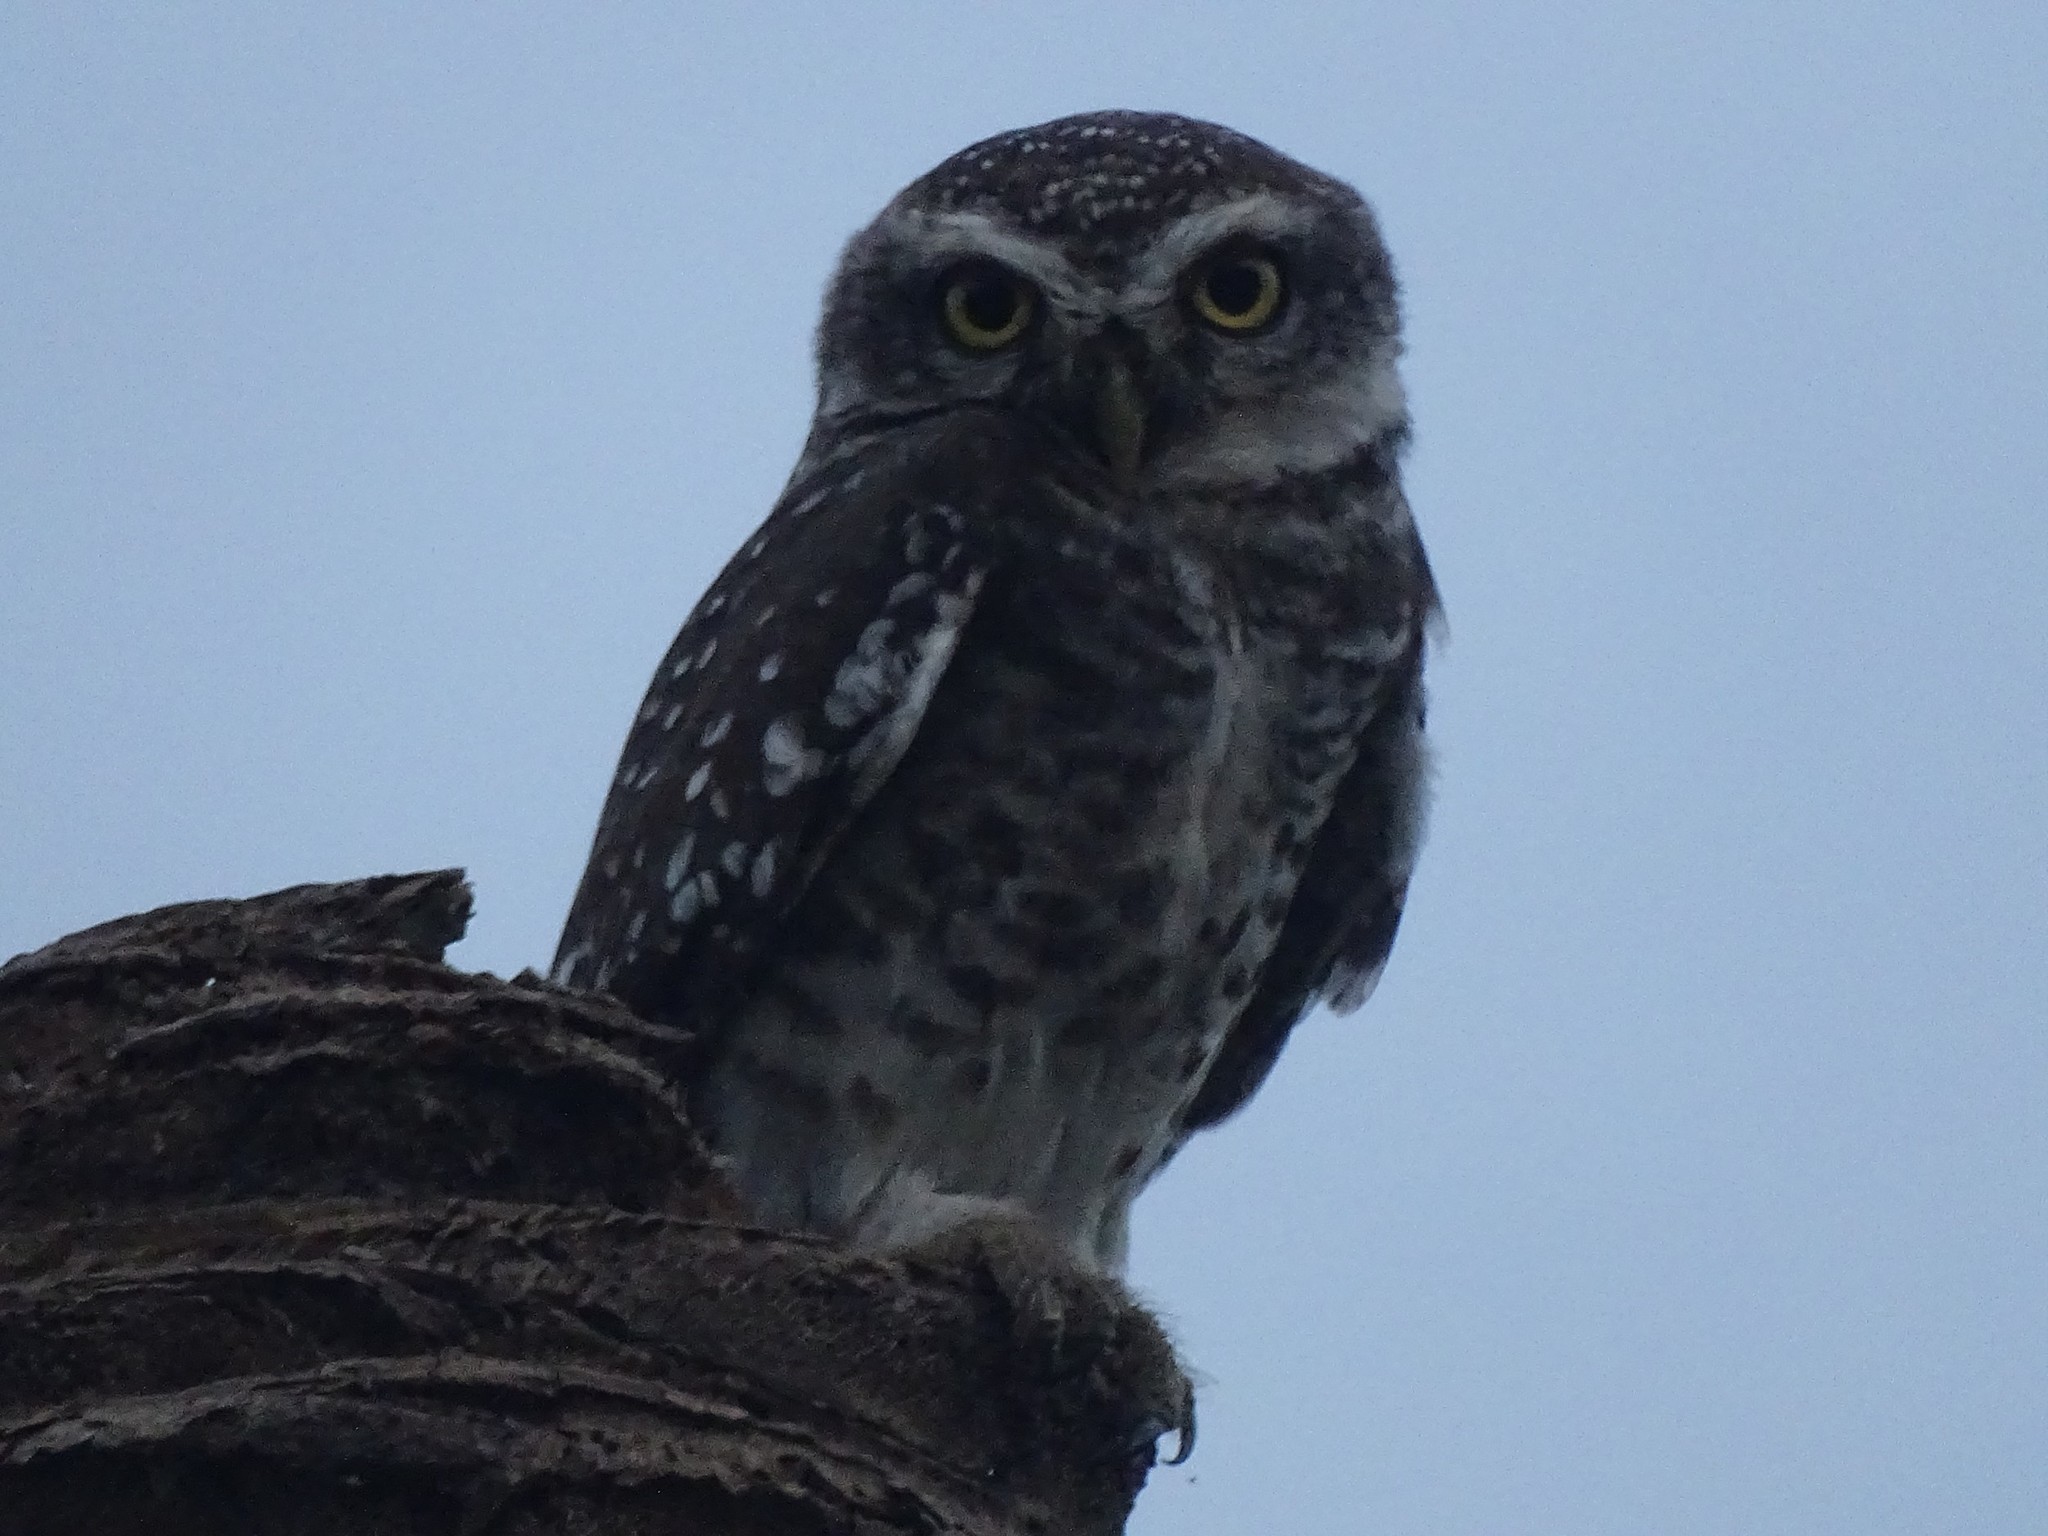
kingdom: Animalia
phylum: Chordata
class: Aves
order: Strigiformes
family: Strigidae
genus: Athene
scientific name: Athene brama
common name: Spotted owlet
